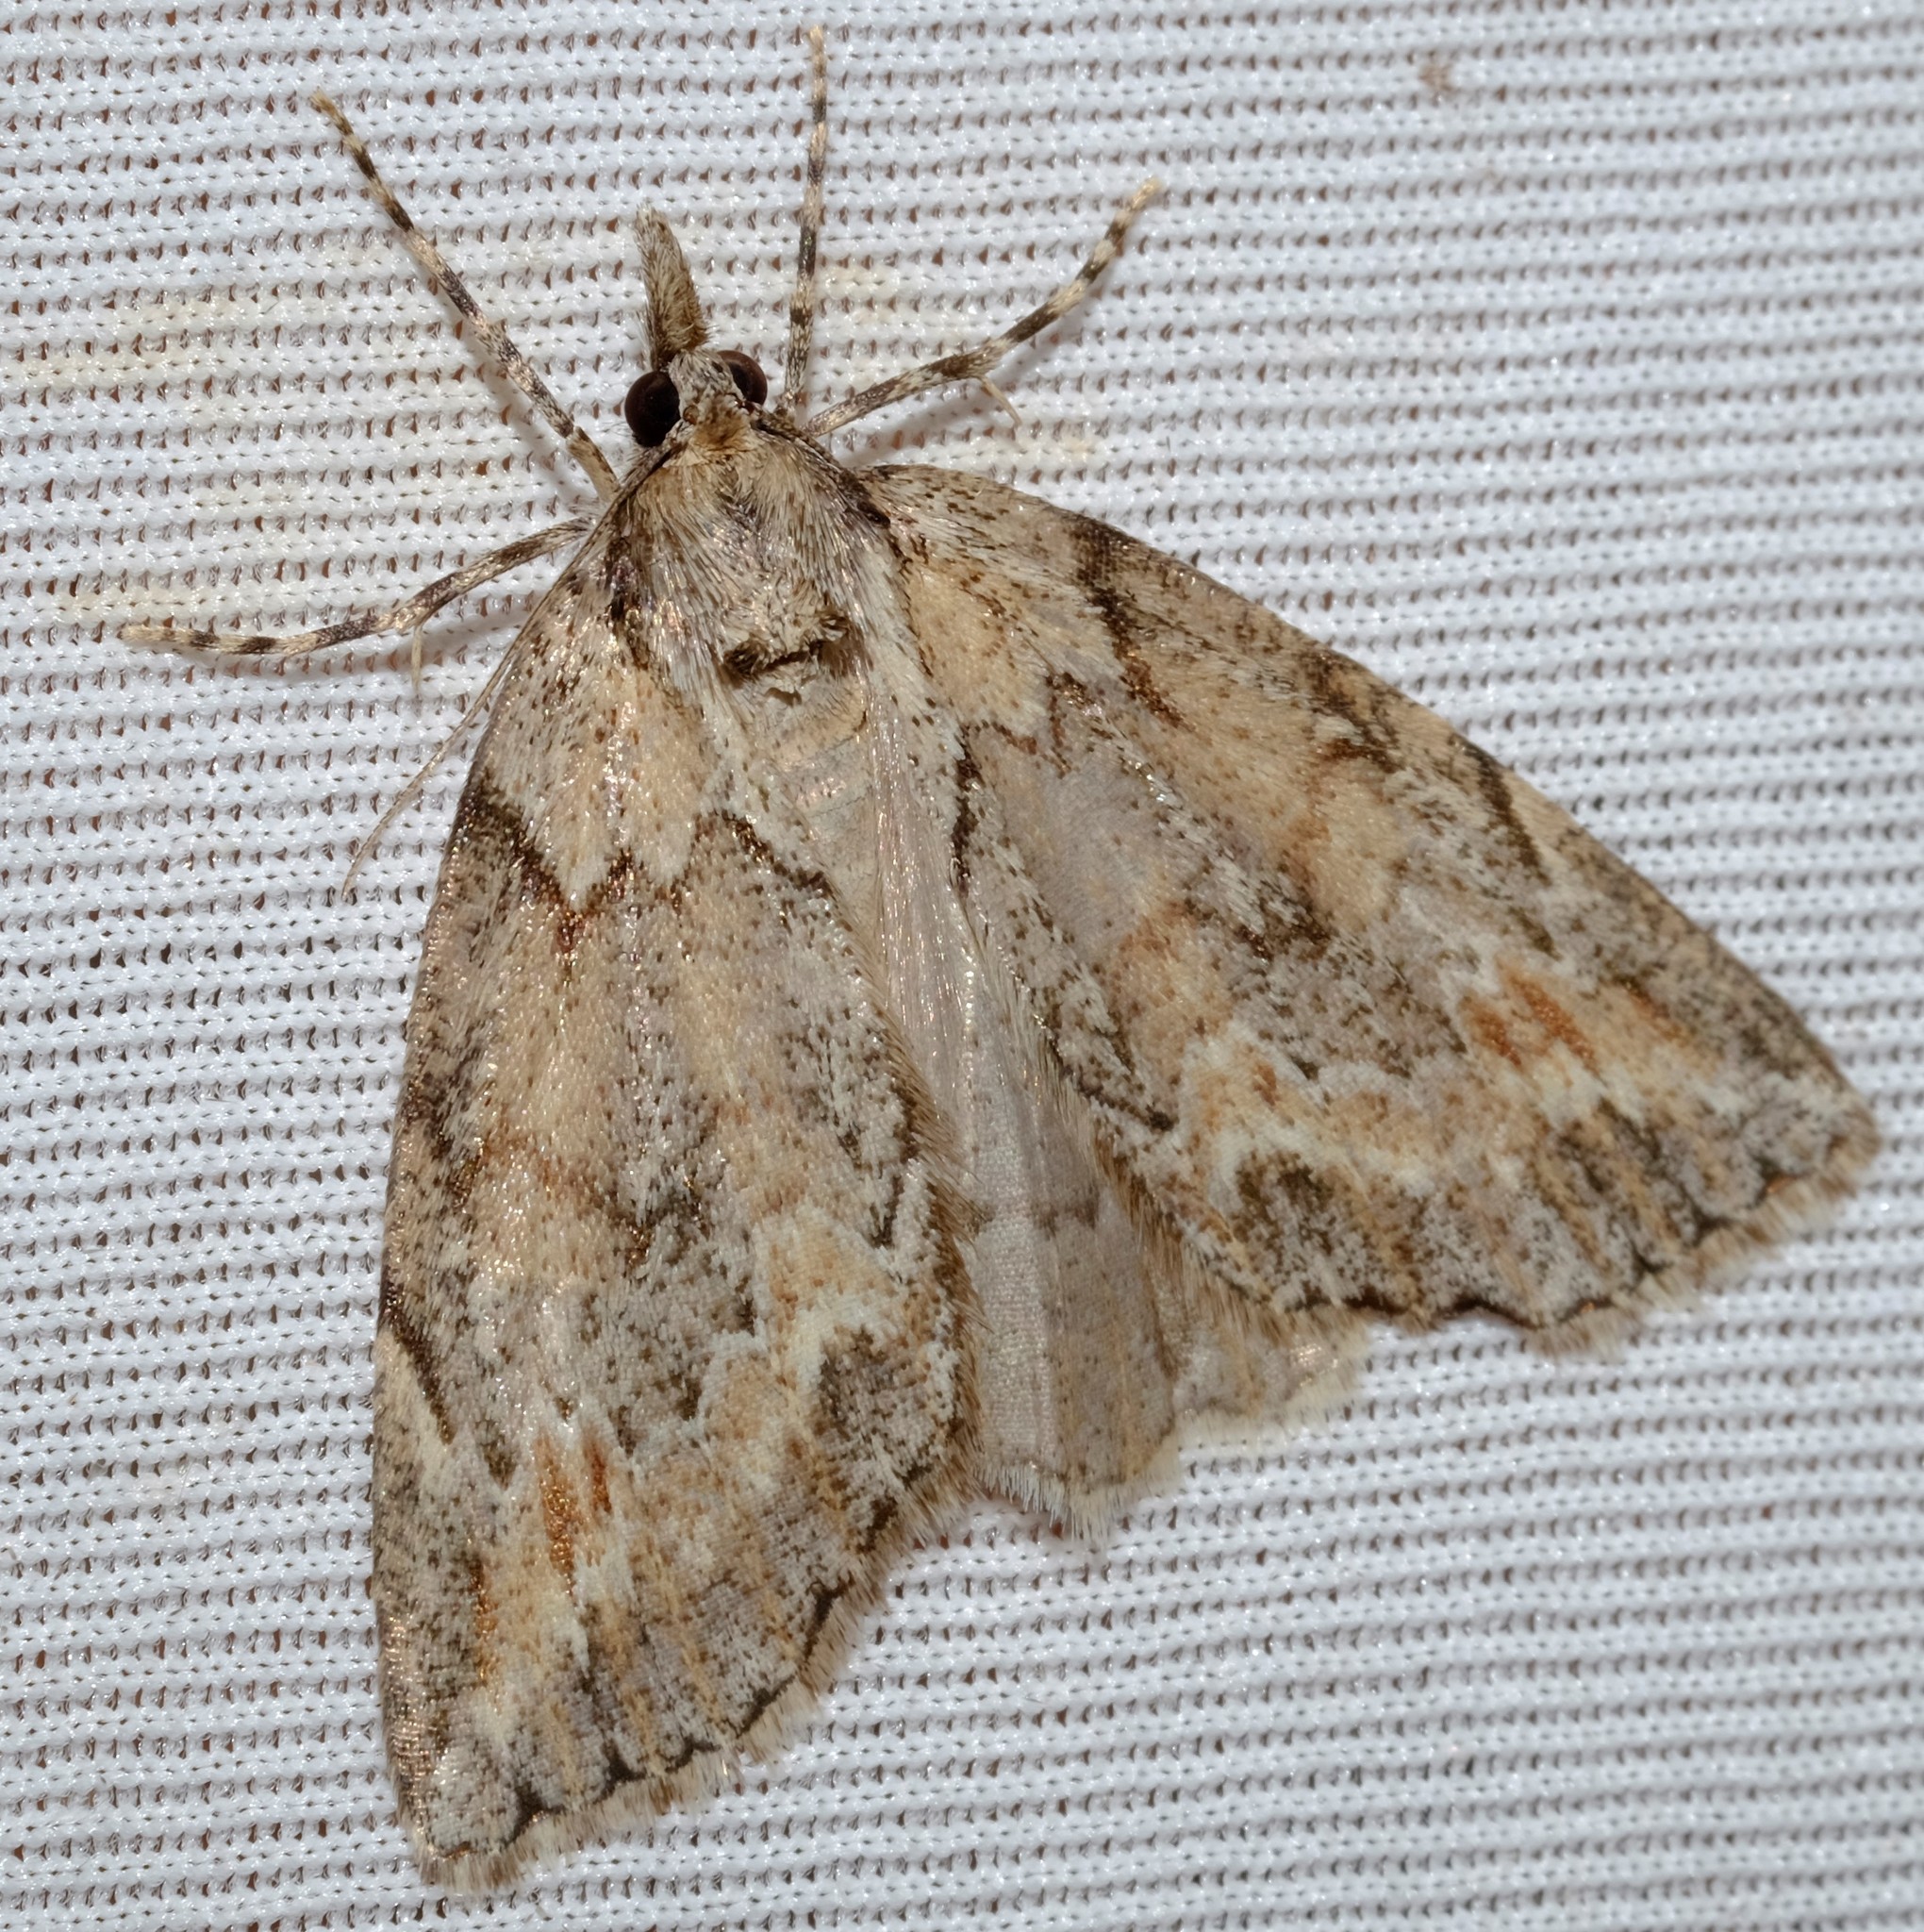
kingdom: Animalia
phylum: Arthropoda
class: Insecta
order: Lepidoptera
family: Geometridae
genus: Mictodoca
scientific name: Mictodoca toxeuta
